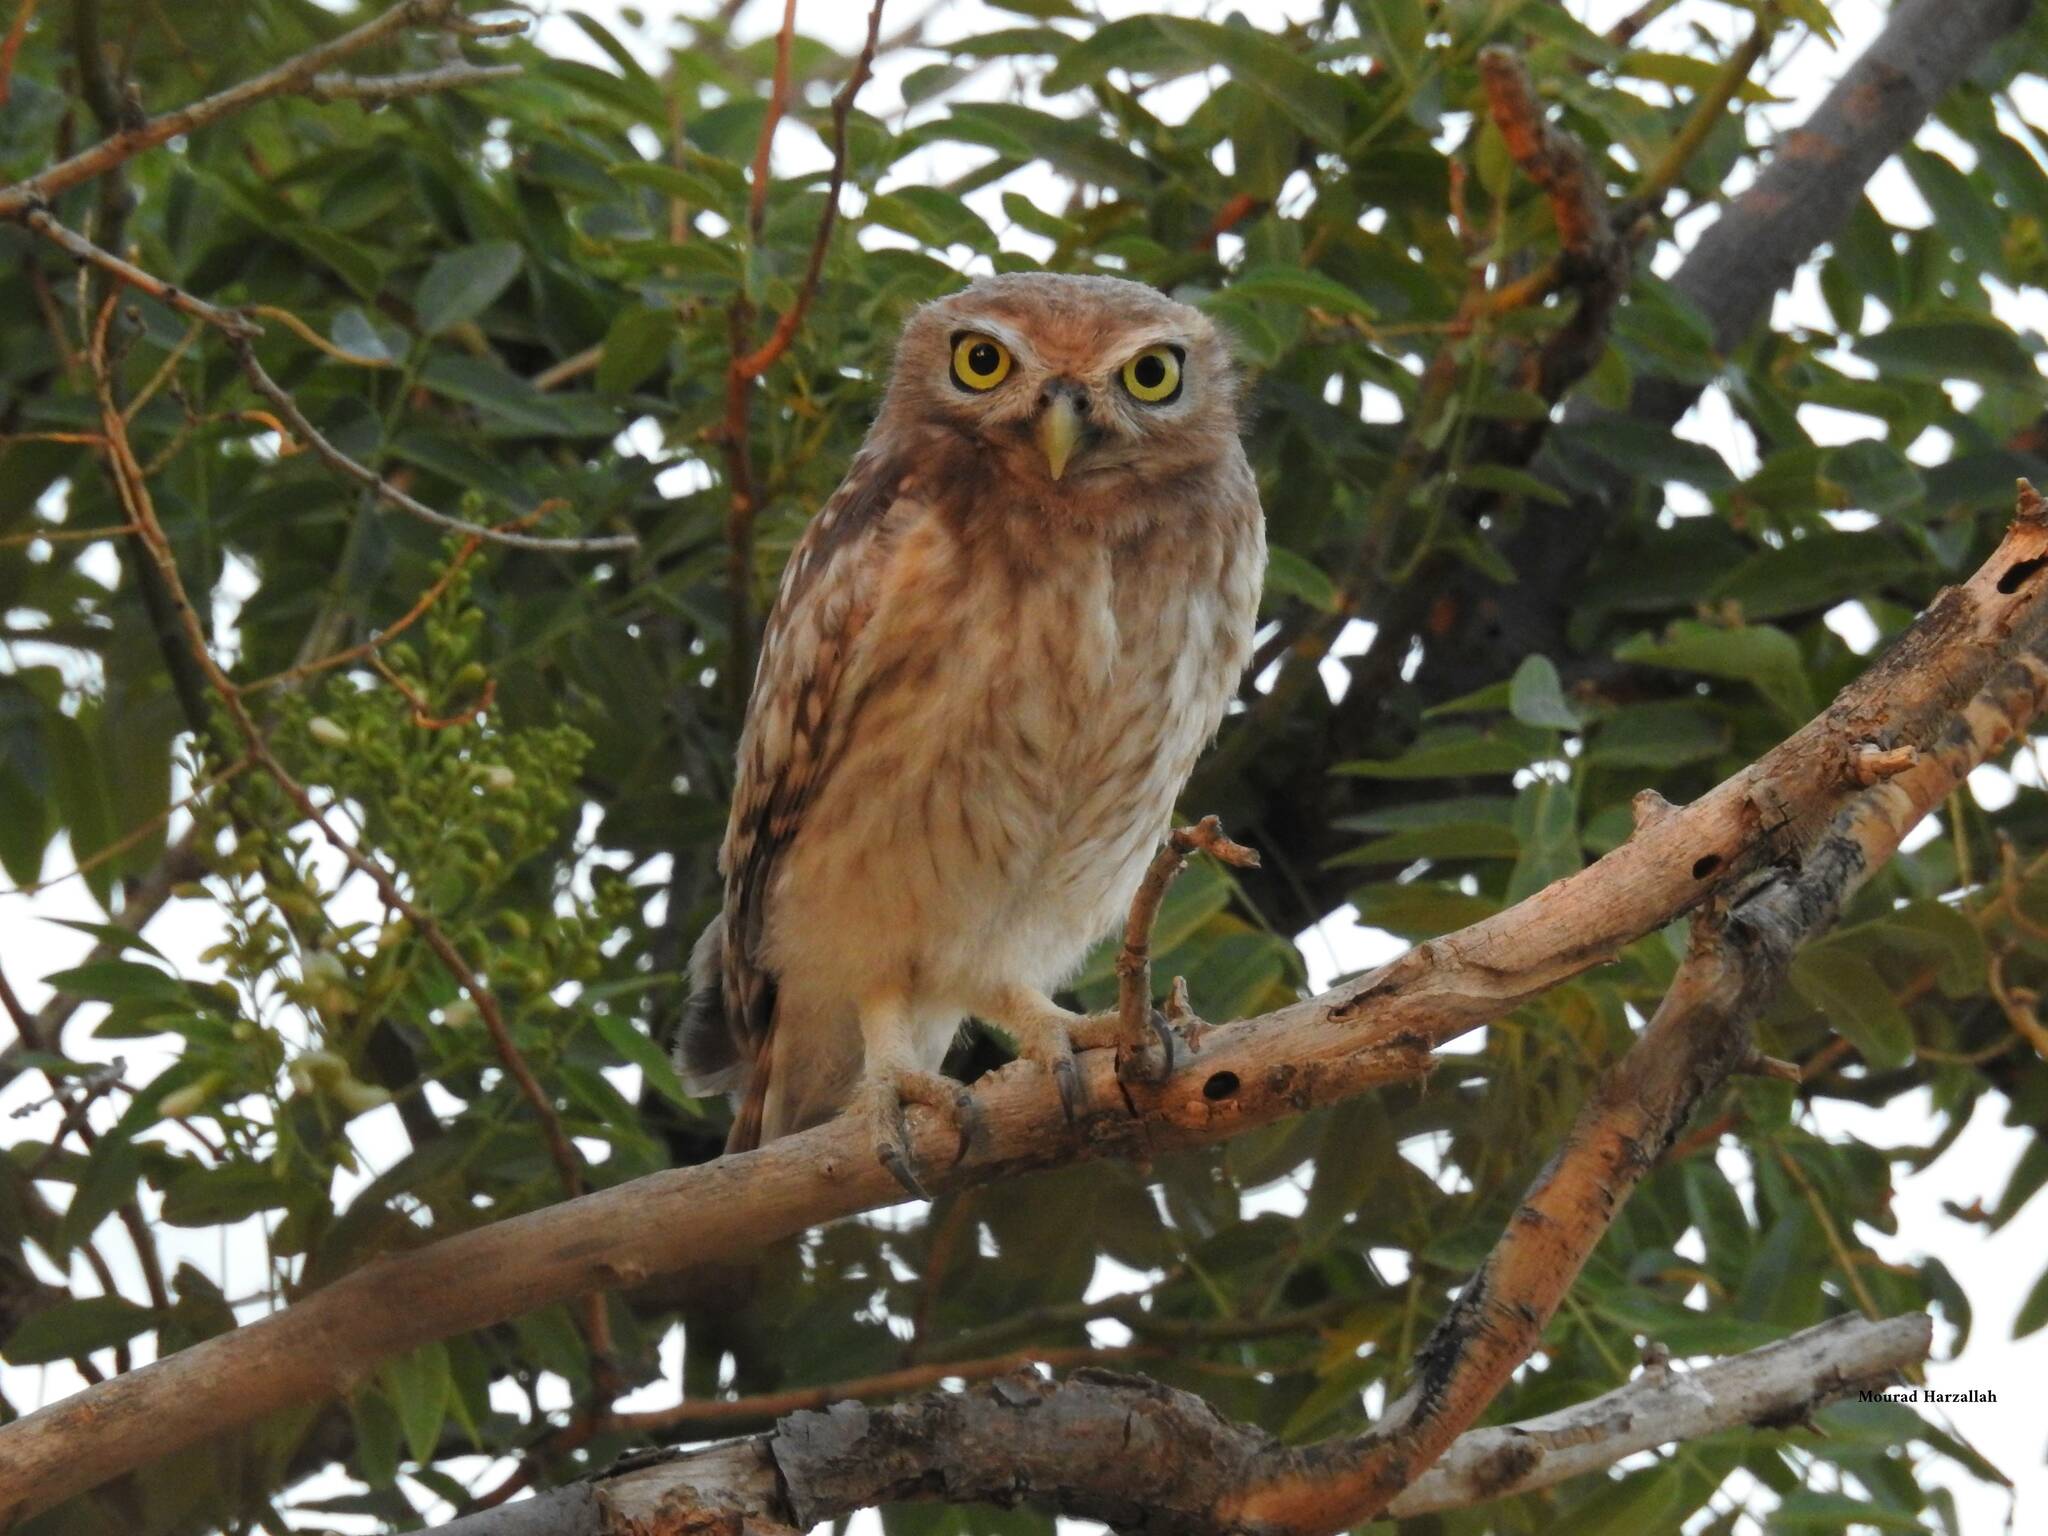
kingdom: Animalia
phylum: Chordata
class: Aves
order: Strigiformes
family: Strigidae
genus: Athene
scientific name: Athene noctua
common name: Little owl
